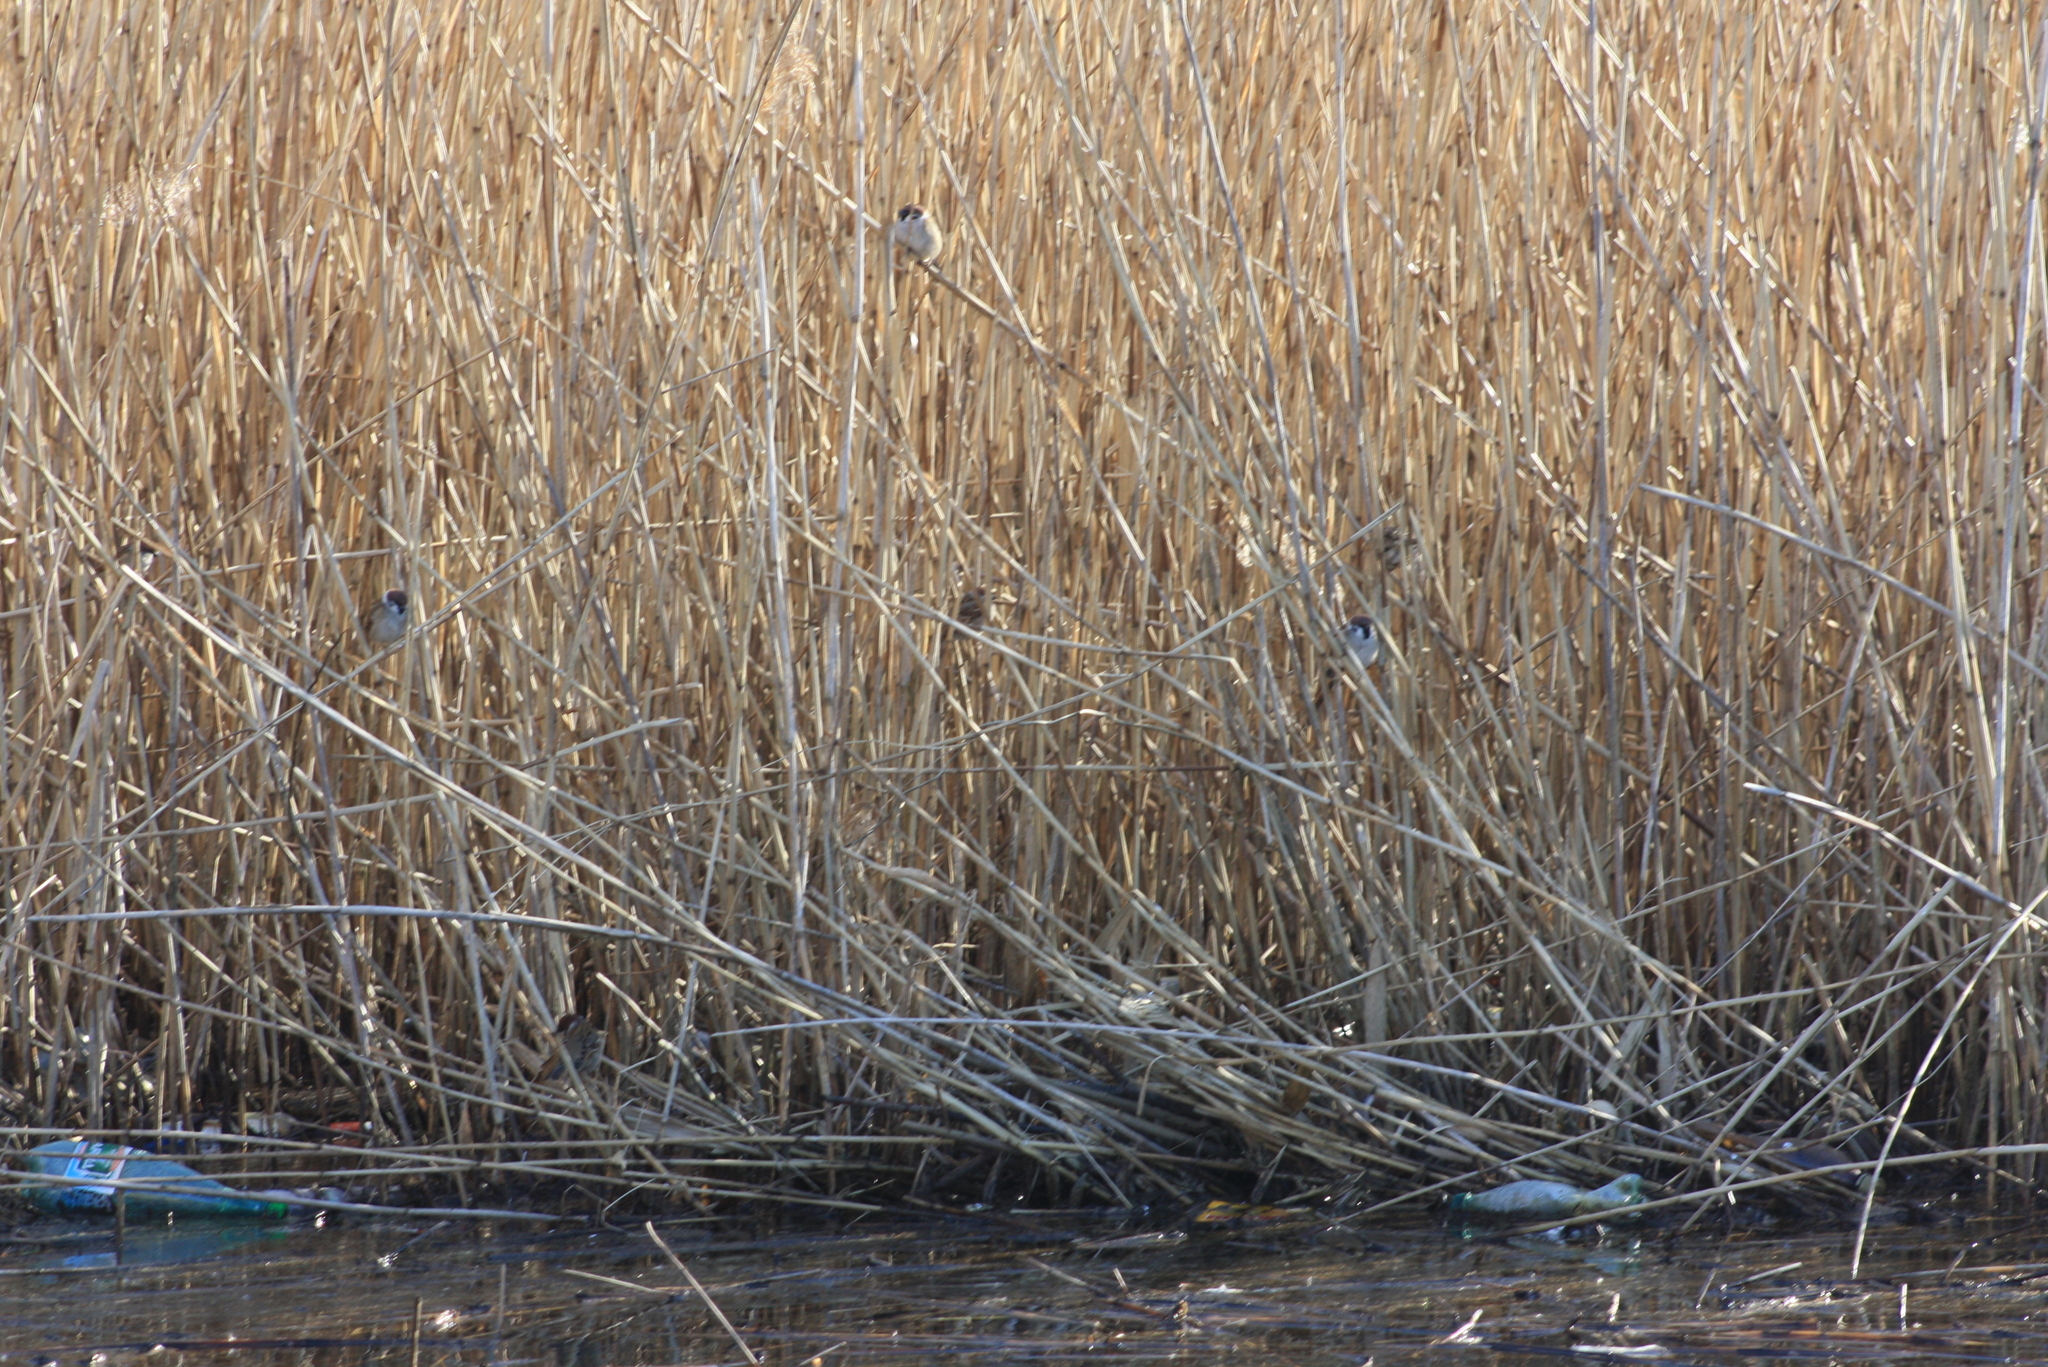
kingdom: Animalia
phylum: Chordata
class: Aves
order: Passeriformes
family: Passeridae
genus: Passer
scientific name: Passer montanus
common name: Eurasian tree sparrow
